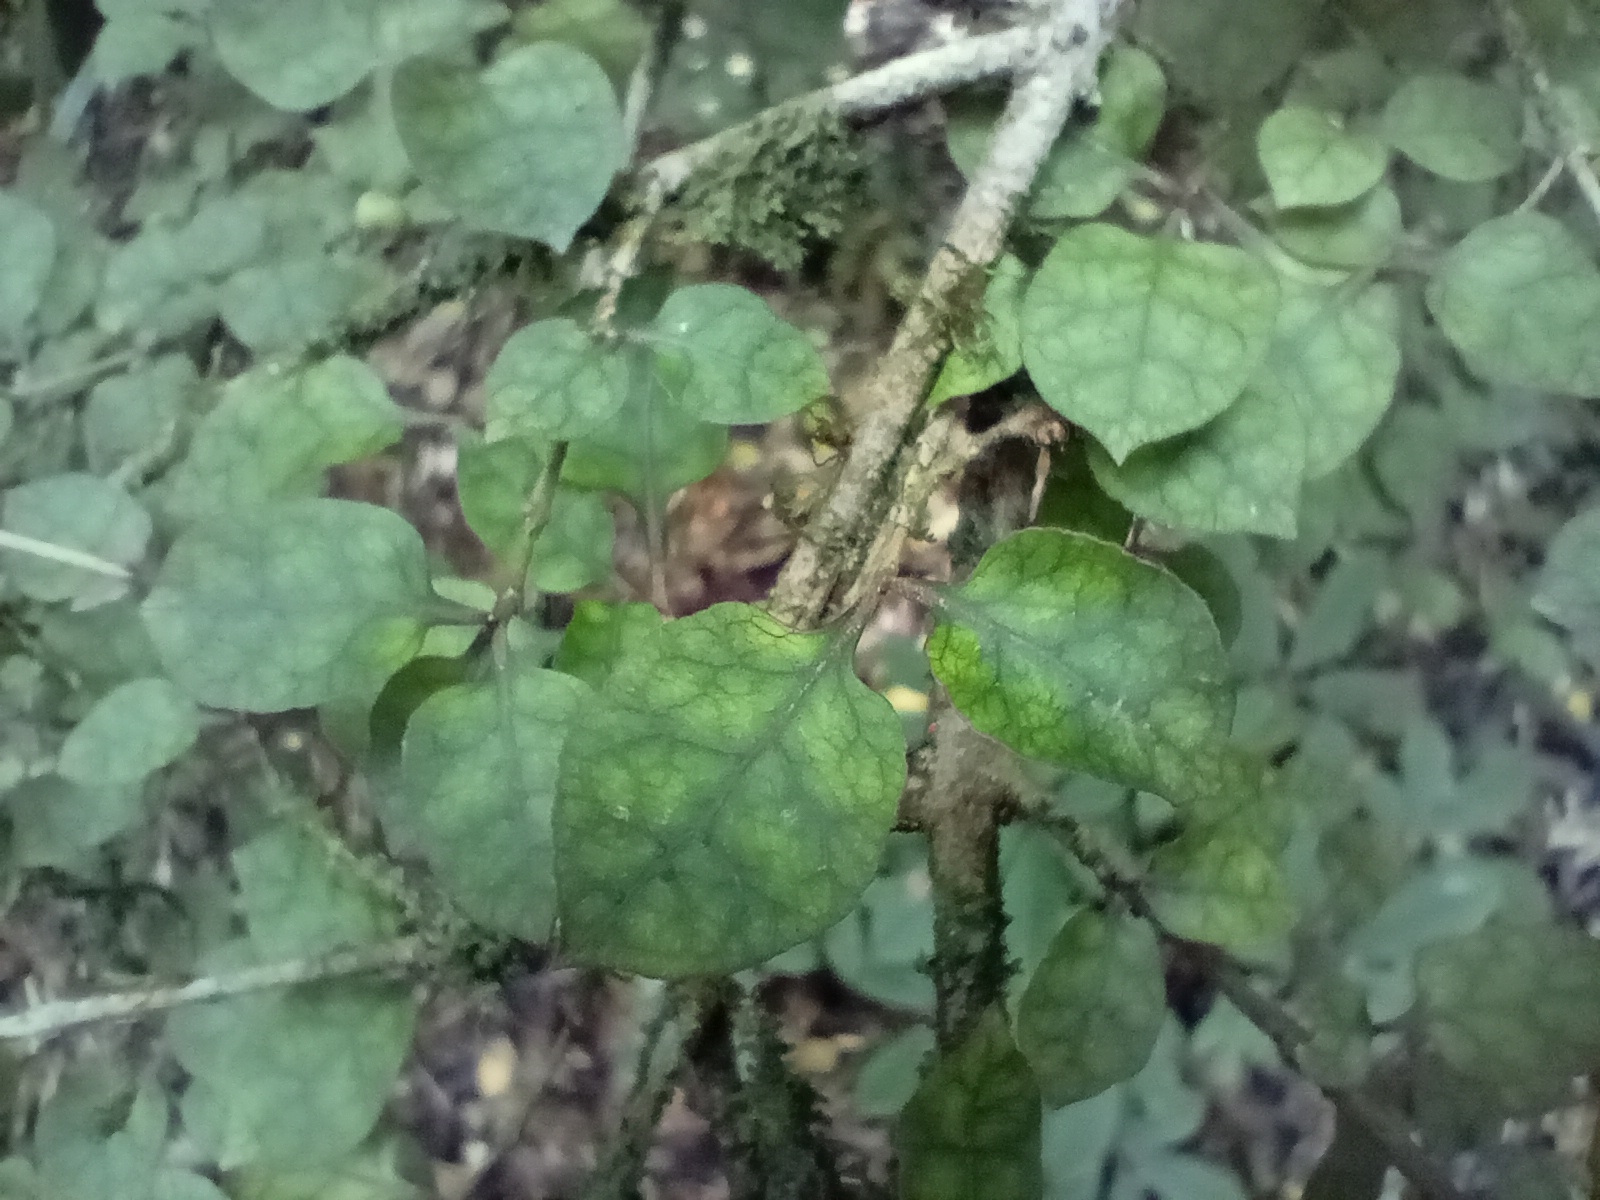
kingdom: Plantae
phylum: Tracheophyta
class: Magnoliopsida
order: Gentianales
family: Rubiaceae
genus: Coprosma
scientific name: Coprosma areolata
